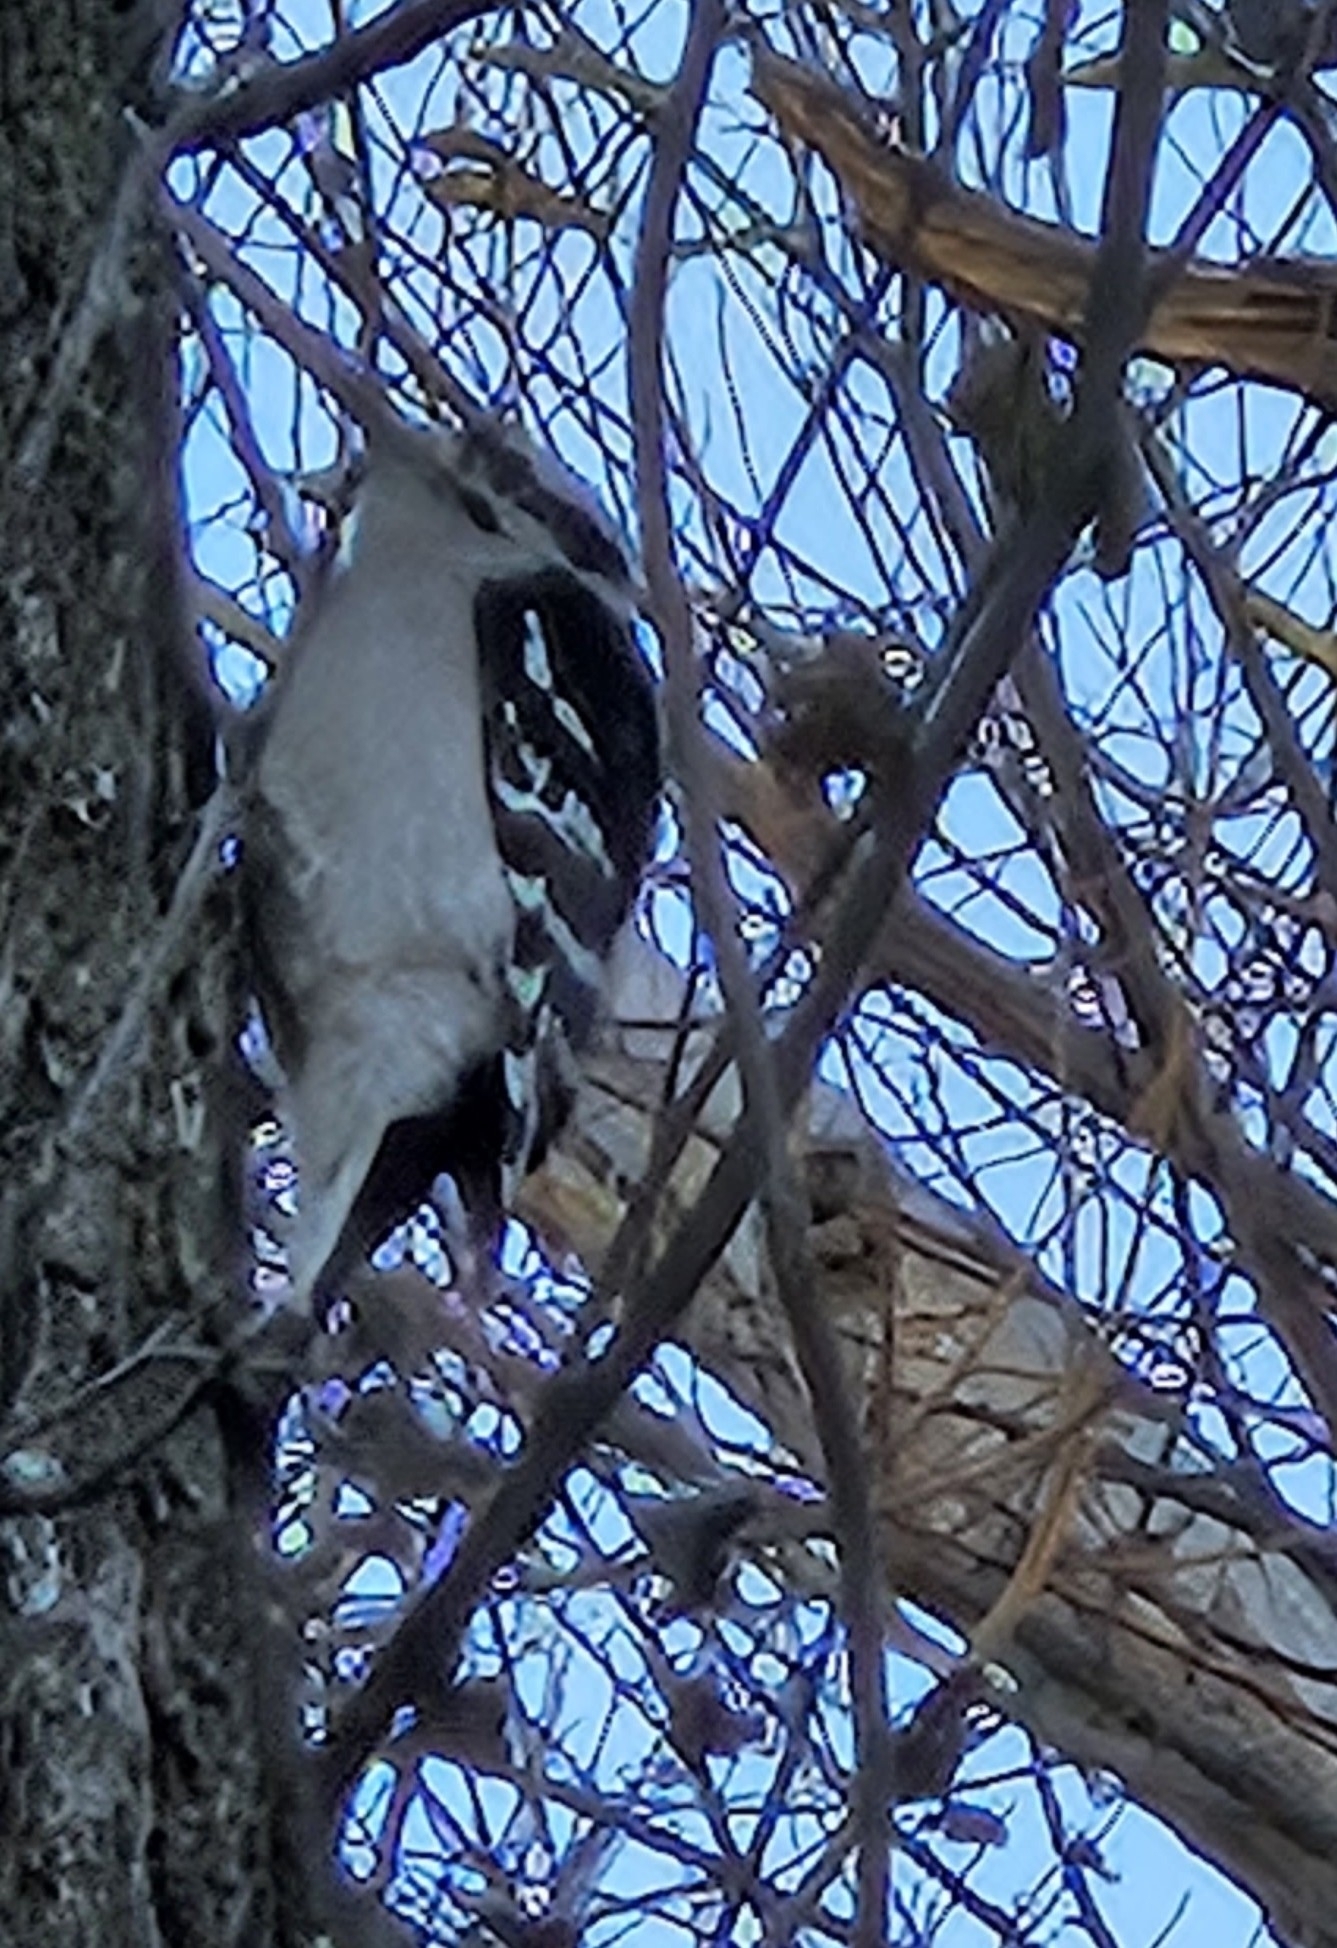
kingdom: Animalia
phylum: Chordata
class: Aves
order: Piciformes
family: Picidae
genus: Dryobates
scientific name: Dryobates pubescens
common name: Downy woodpecker
